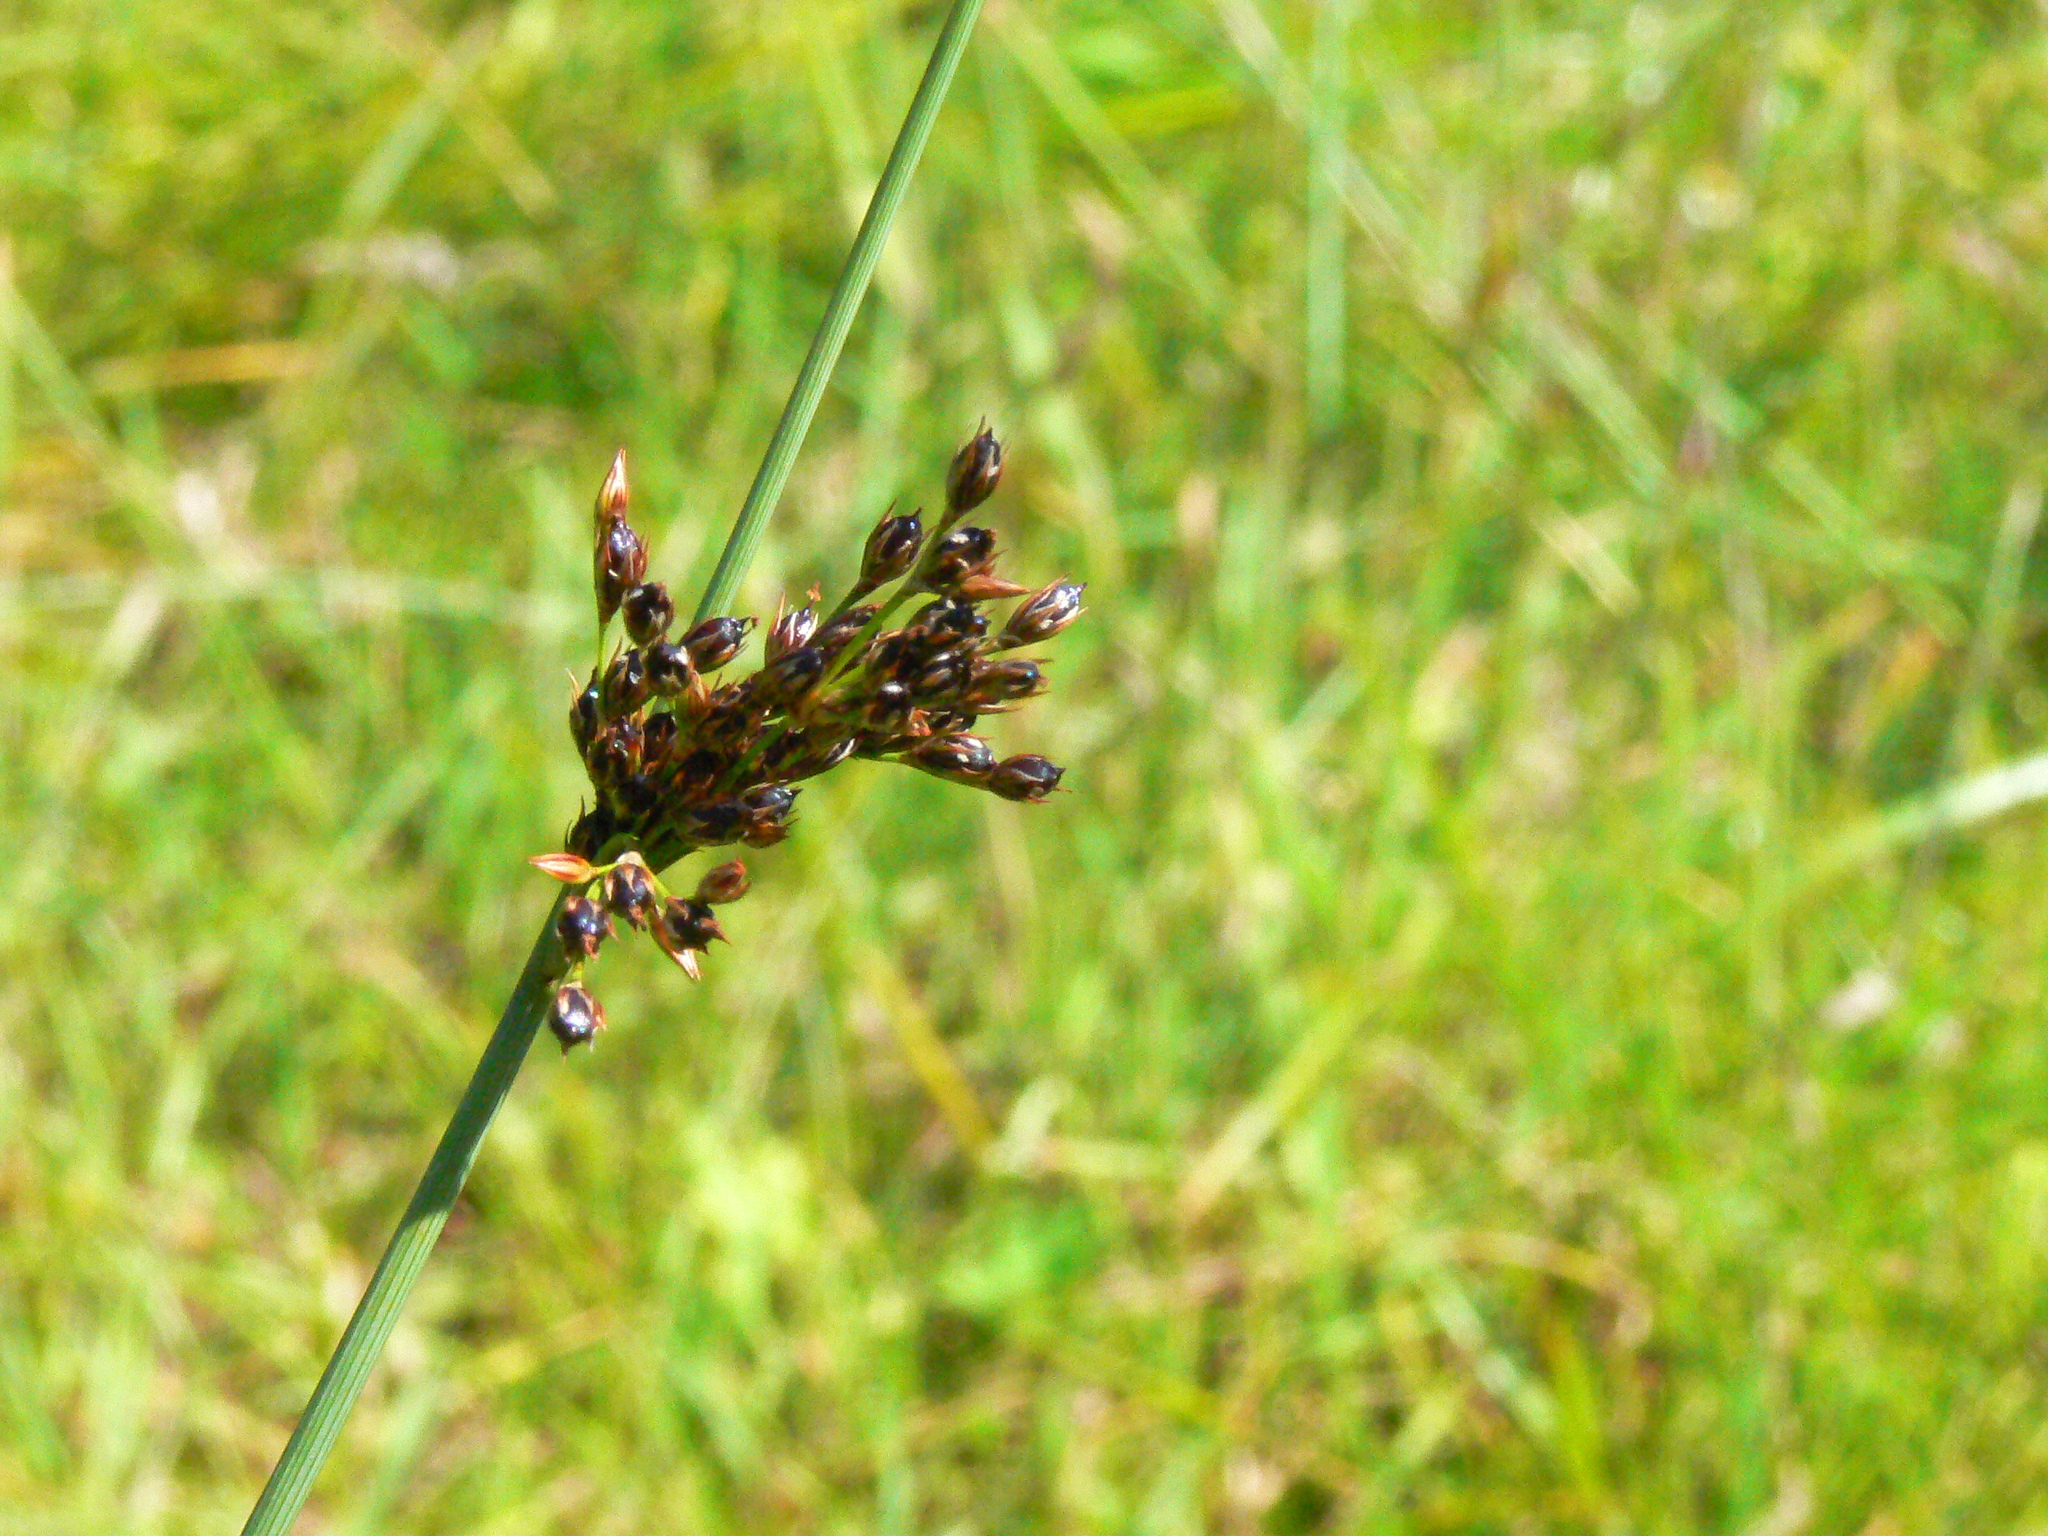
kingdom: Plantae
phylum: Tracheophyta
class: Liliopsida
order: Poales
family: Juncaceae
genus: Juncus
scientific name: Juncus inflexus
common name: Hard rush
